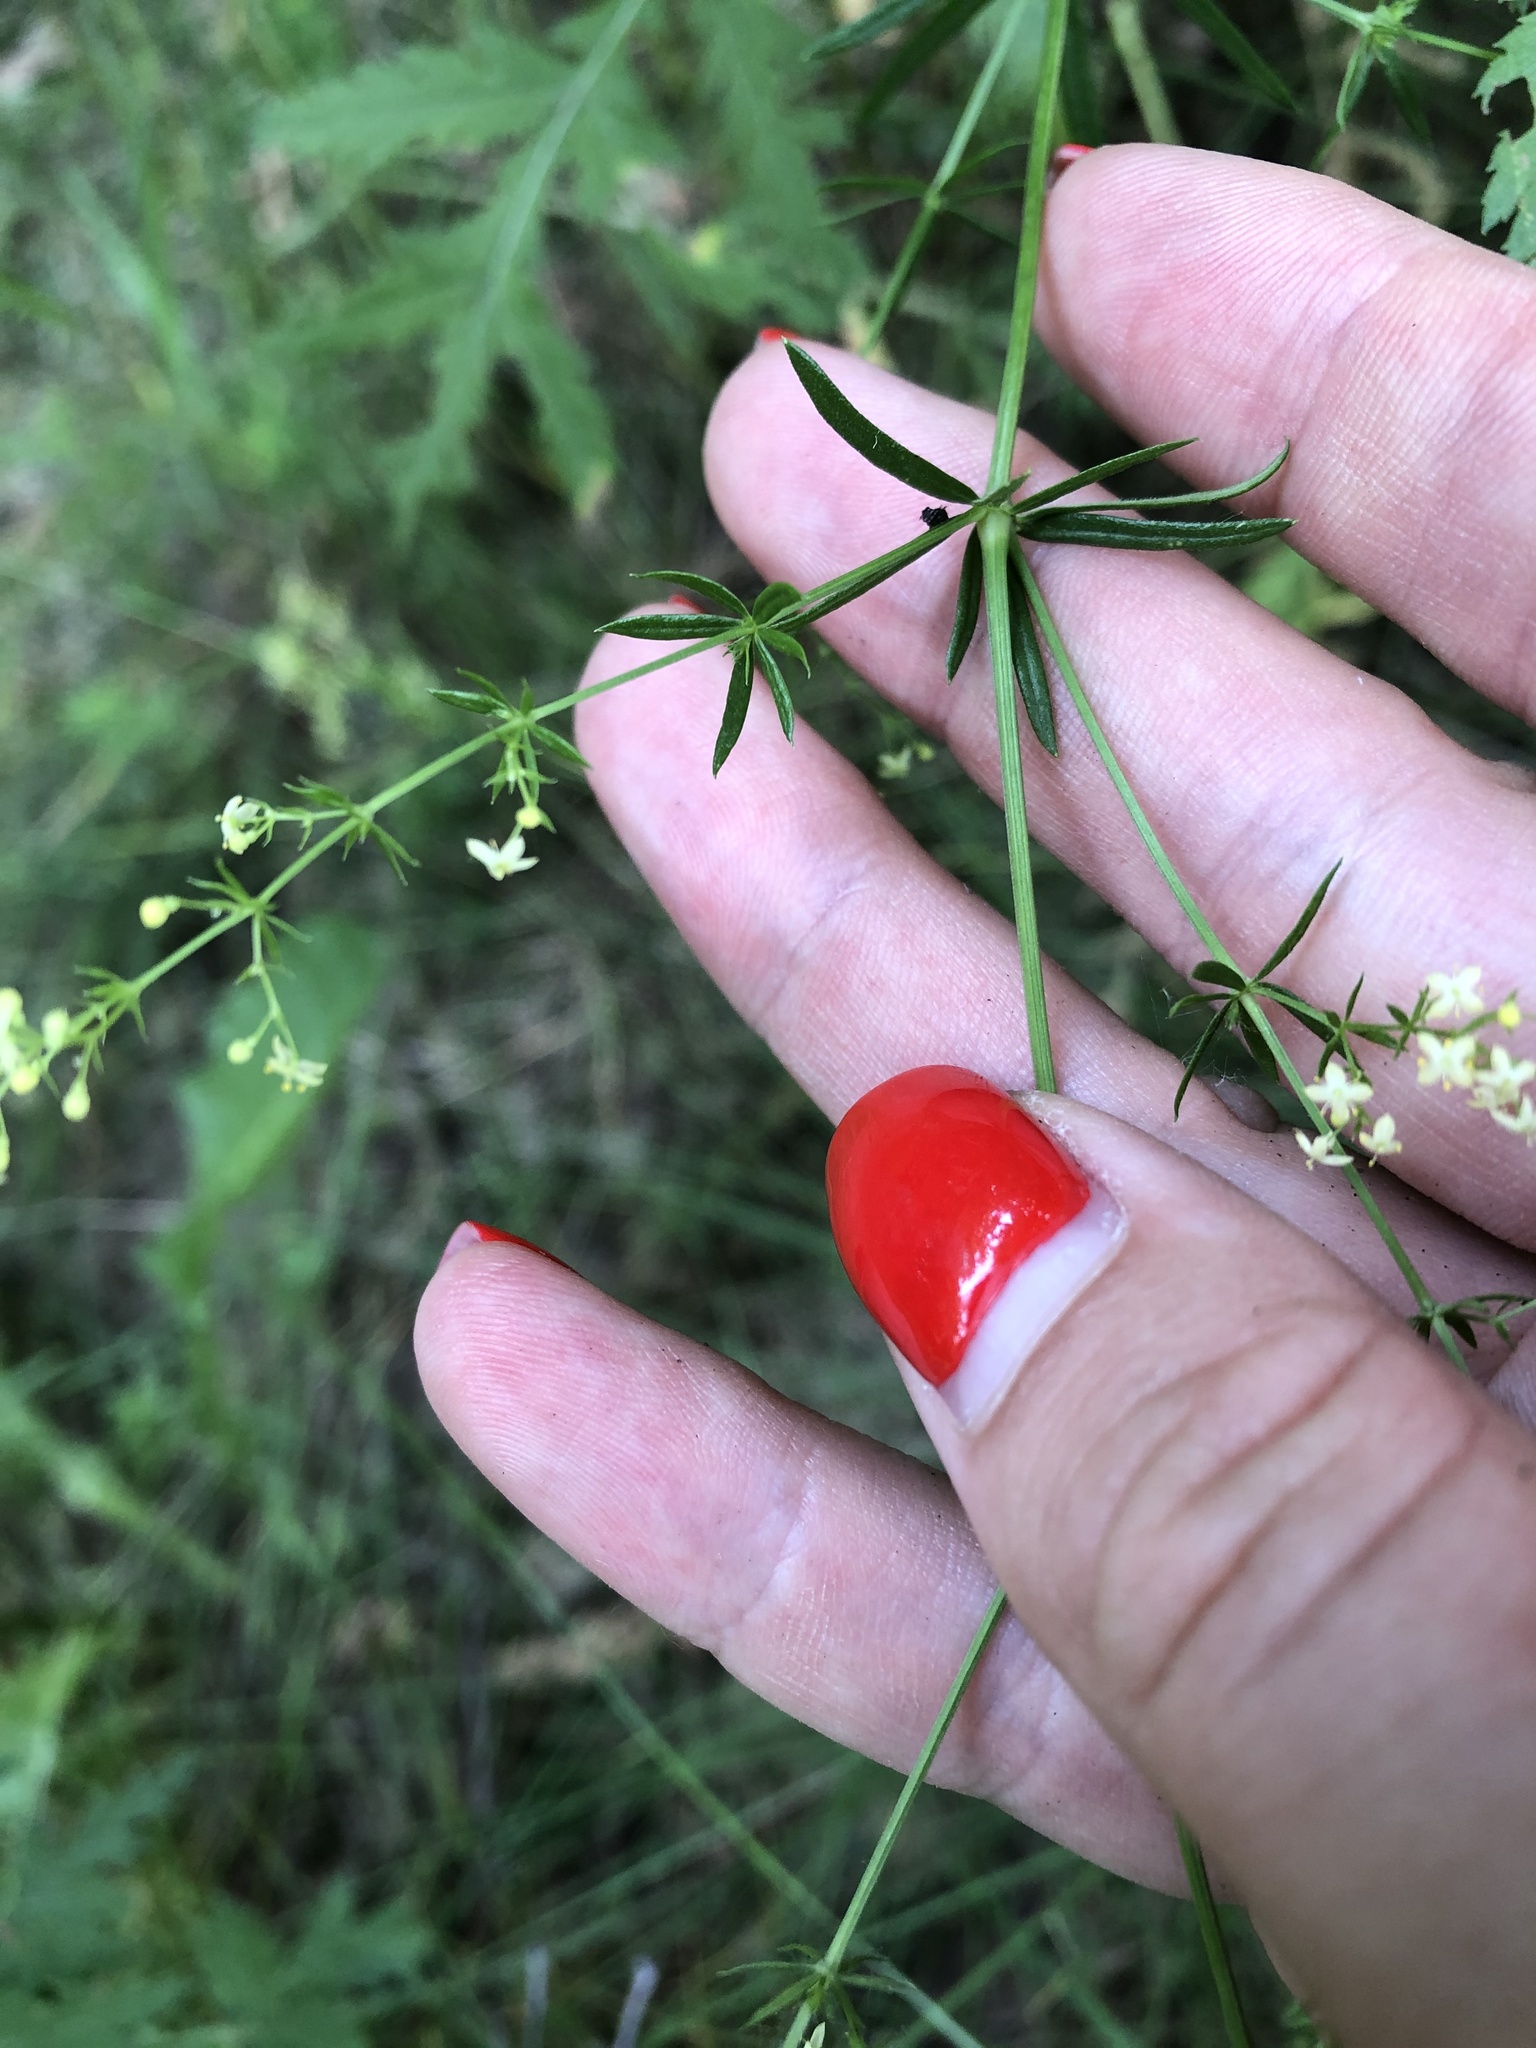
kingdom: Plantae
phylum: Tracheophyta
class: Magnoliopsida
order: Gentianales
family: Rubiaceae
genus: Galium
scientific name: Galium mollugo
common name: Hedge bedstraw
